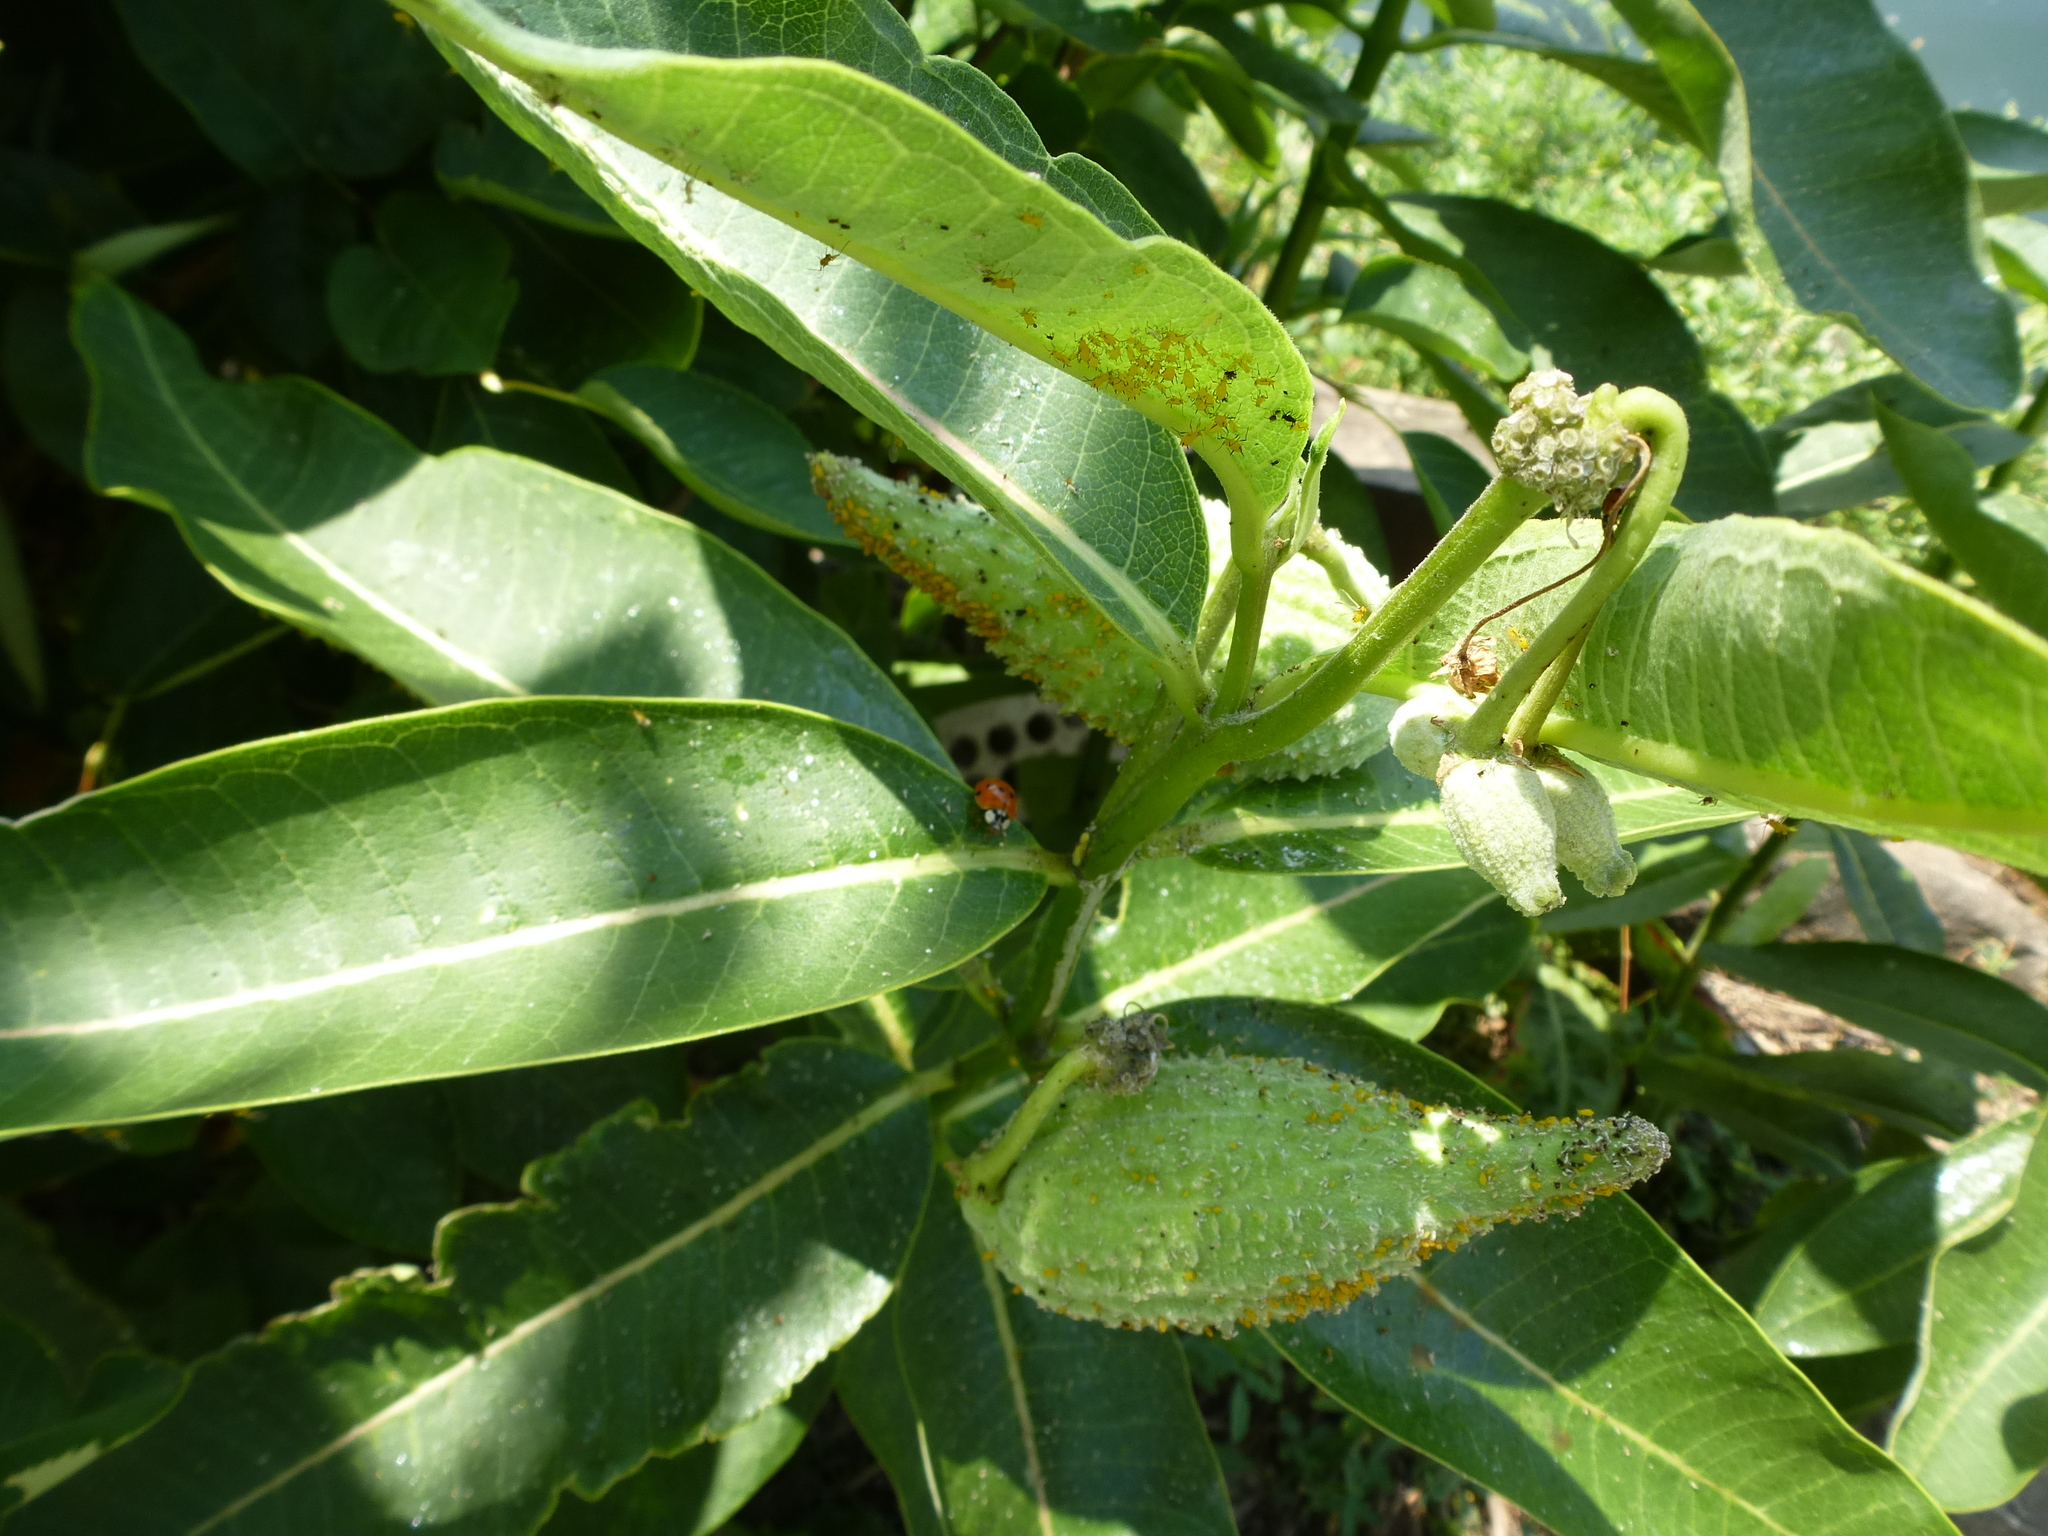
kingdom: Animalia
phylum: Arthropoda
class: Insecta
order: Coleoptera
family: Coccinellidae
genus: Harmonia
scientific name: Harmonia axyridis
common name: Harlequin ladybird
